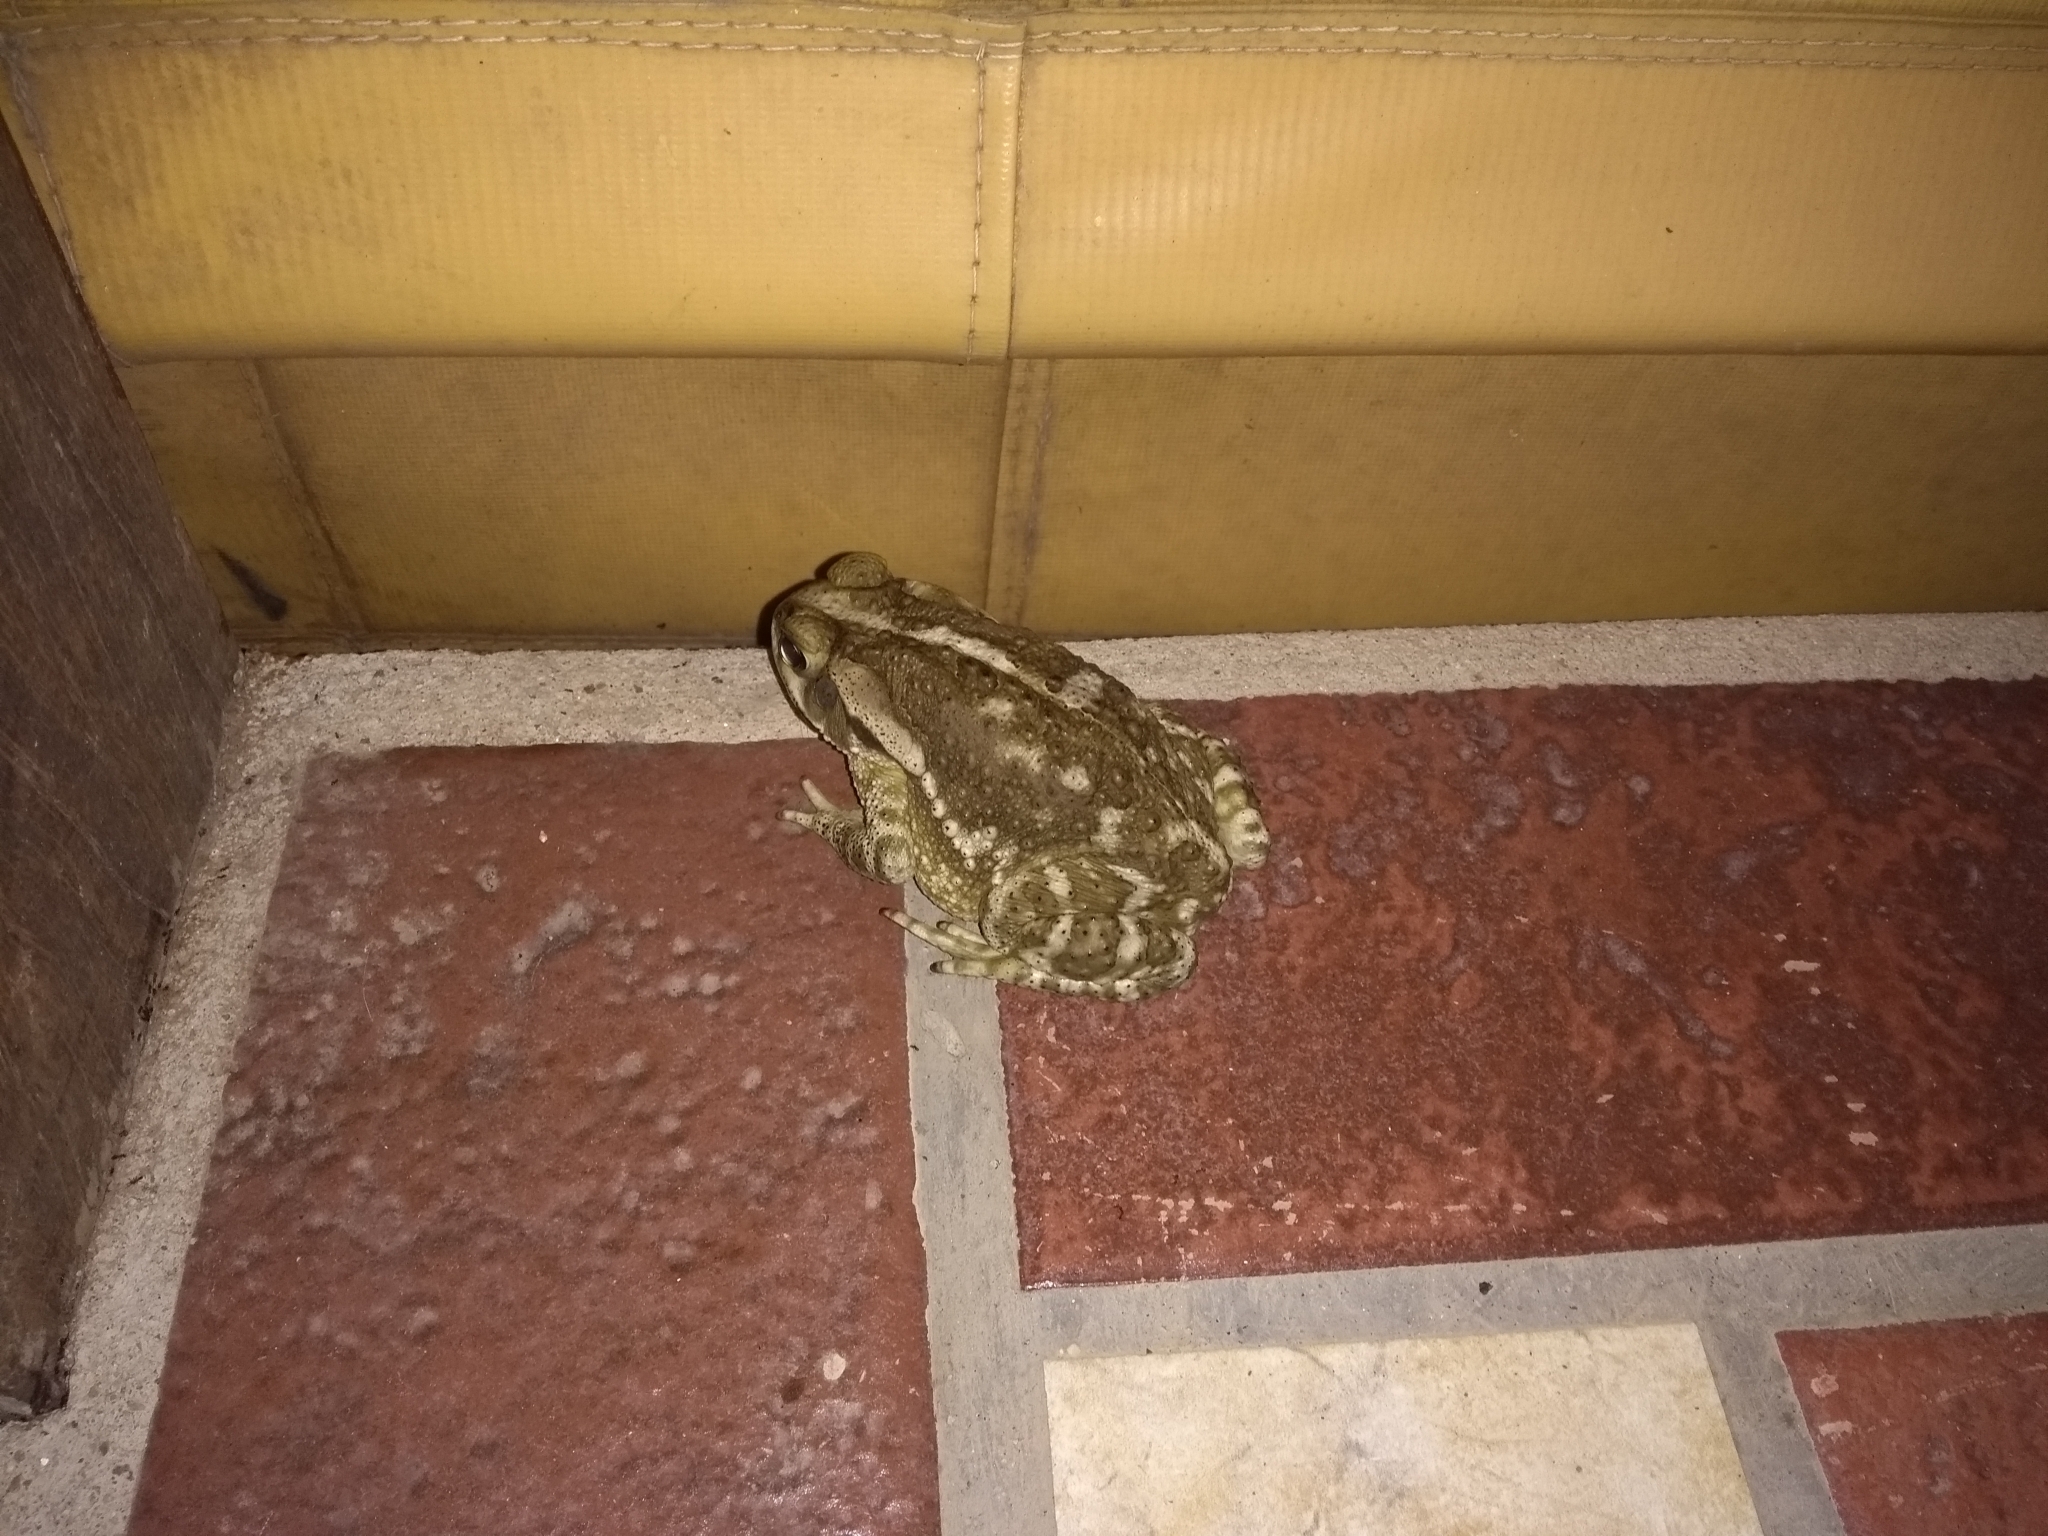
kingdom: Animalia
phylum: Chordata
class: Amphibia
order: Anura
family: Bufonidae
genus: Rhinella
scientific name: Rhinella arenarum
